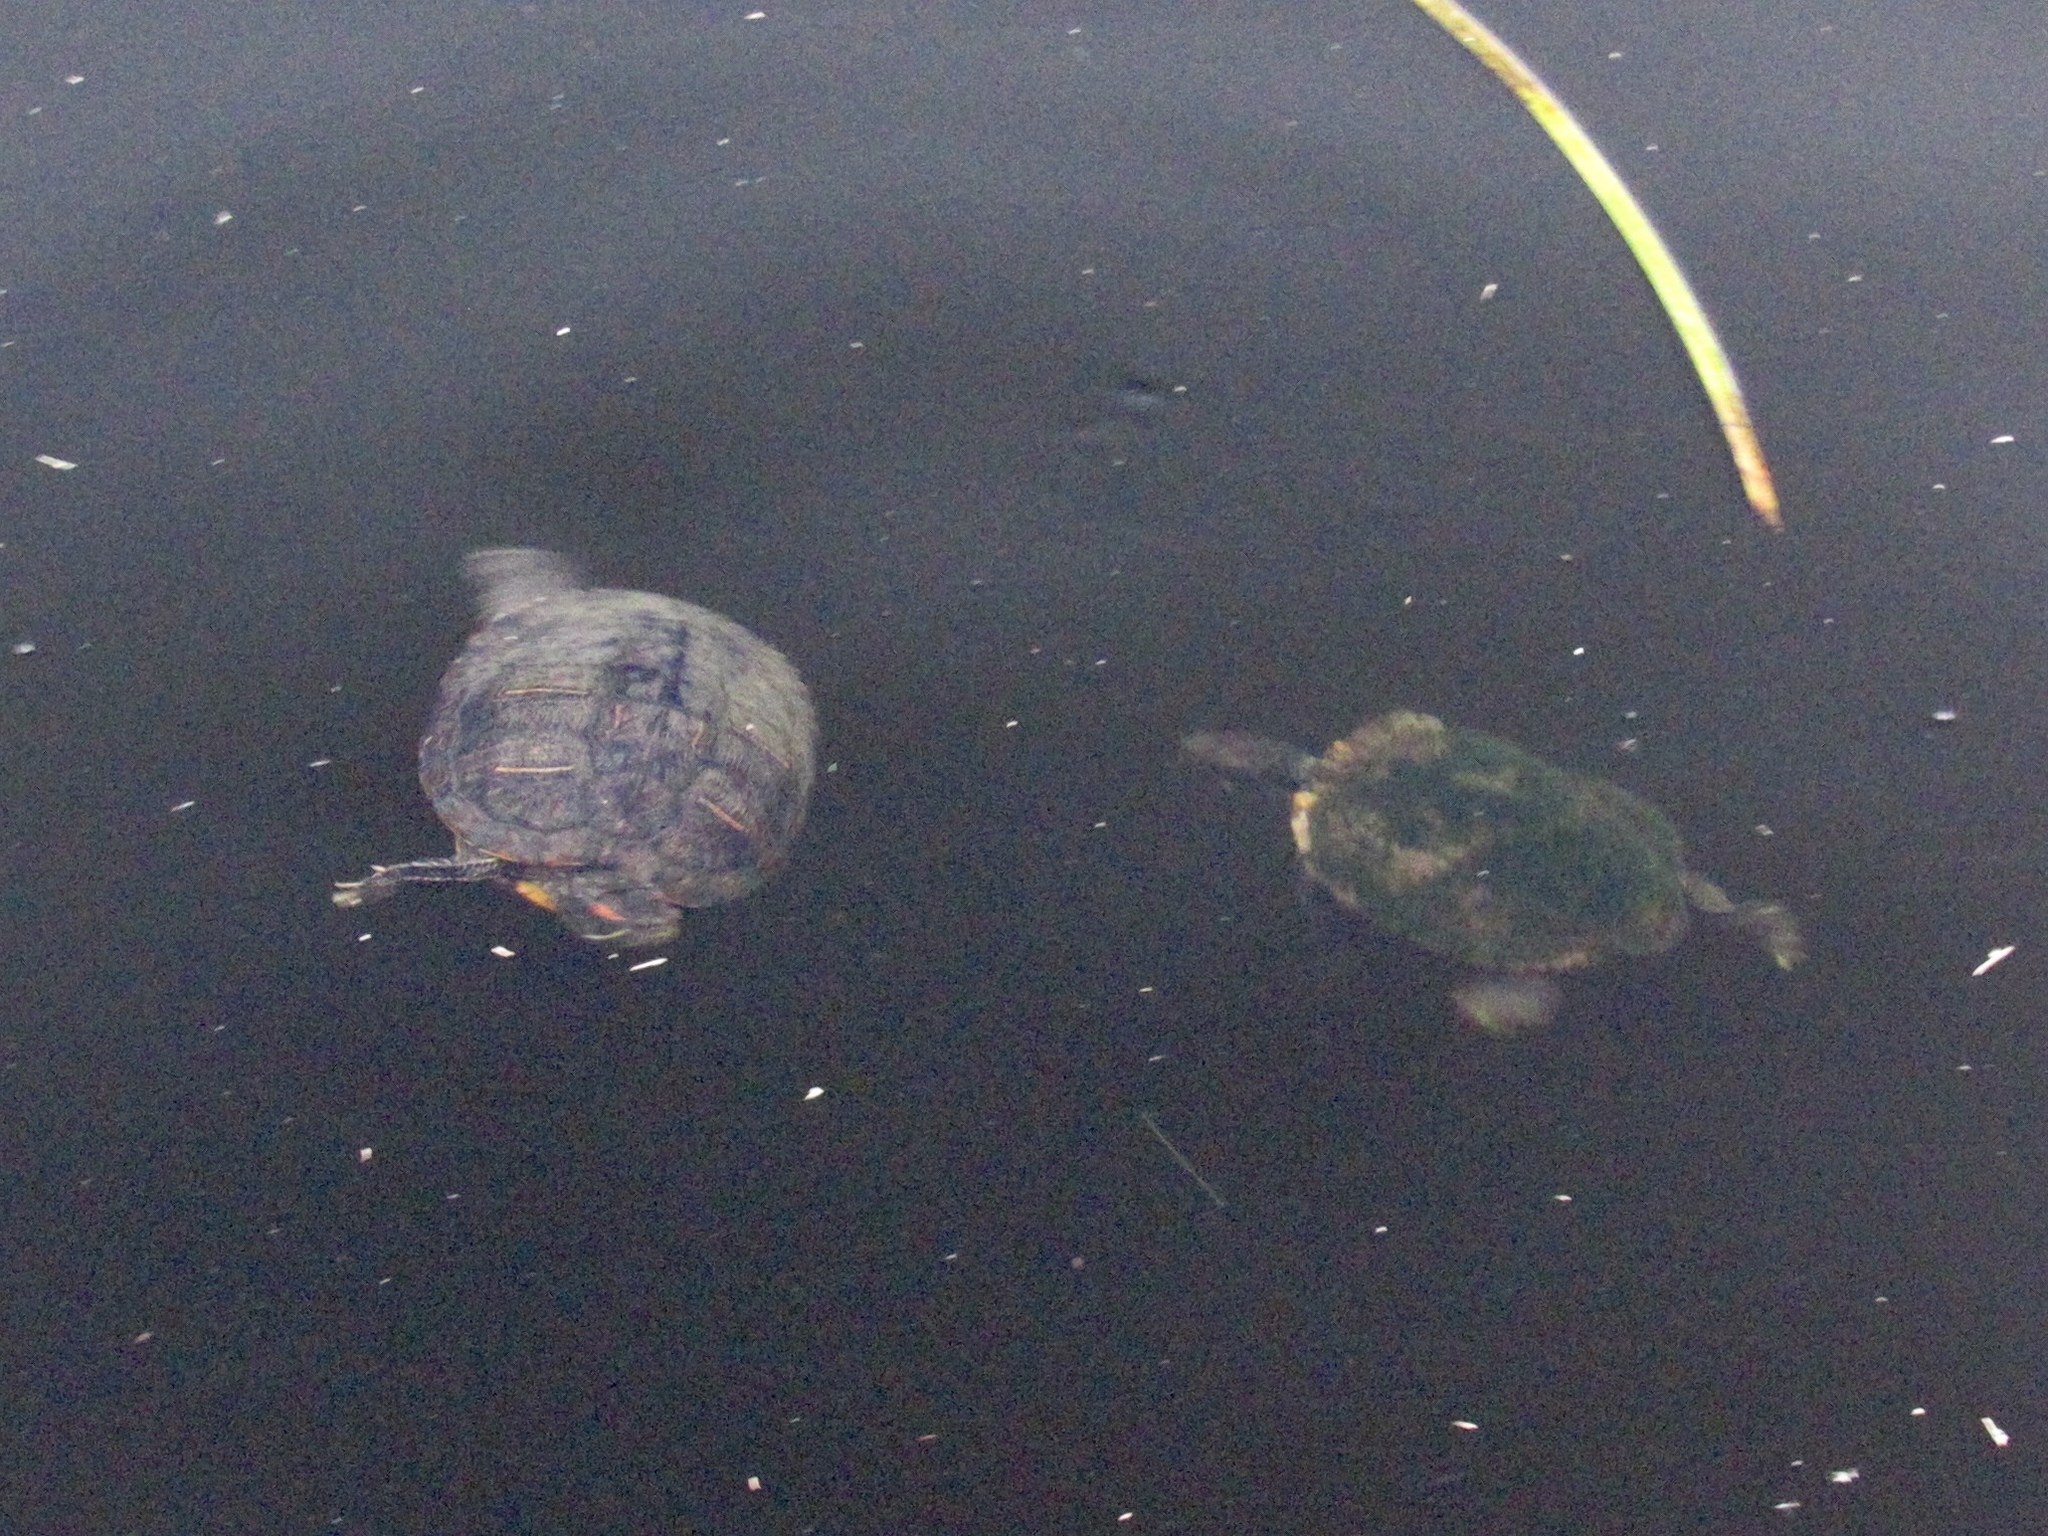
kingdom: Animalia
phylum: Chordata
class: Testudines
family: Emydidae
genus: Trachemys
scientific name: Trachemys scripta
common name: Slider
